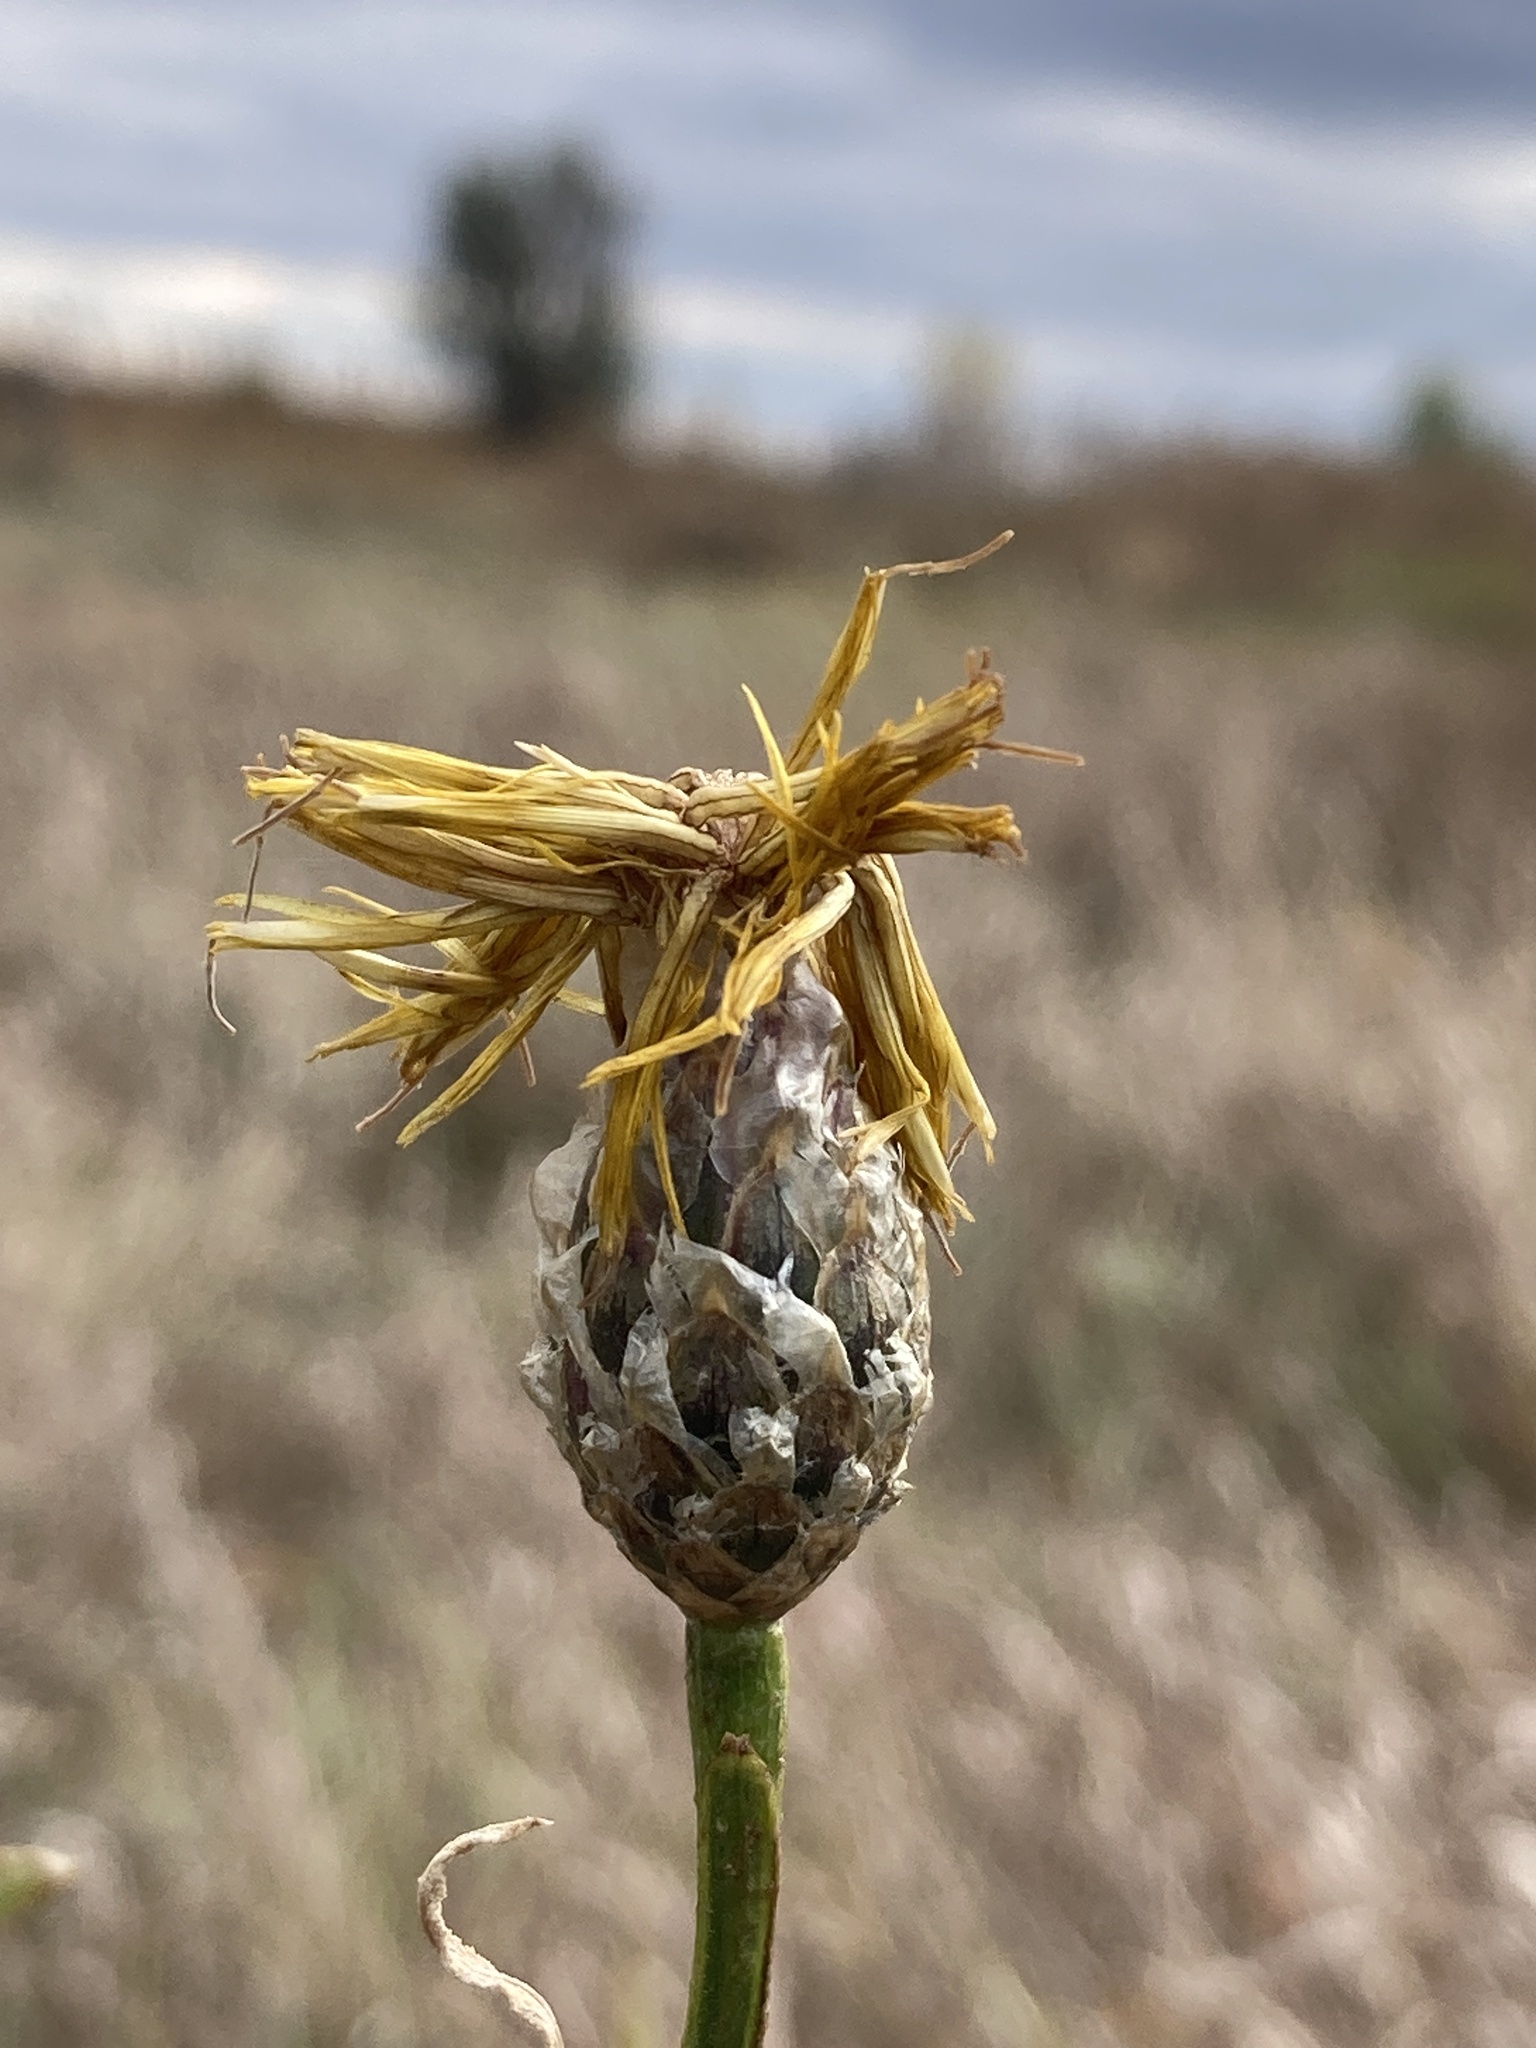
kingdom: Plantae
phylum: Tracheophyta
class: Magnoliopsida
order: Asterales
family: Asteraceae
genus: Centaurea
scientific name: Centaurea glastifolia
